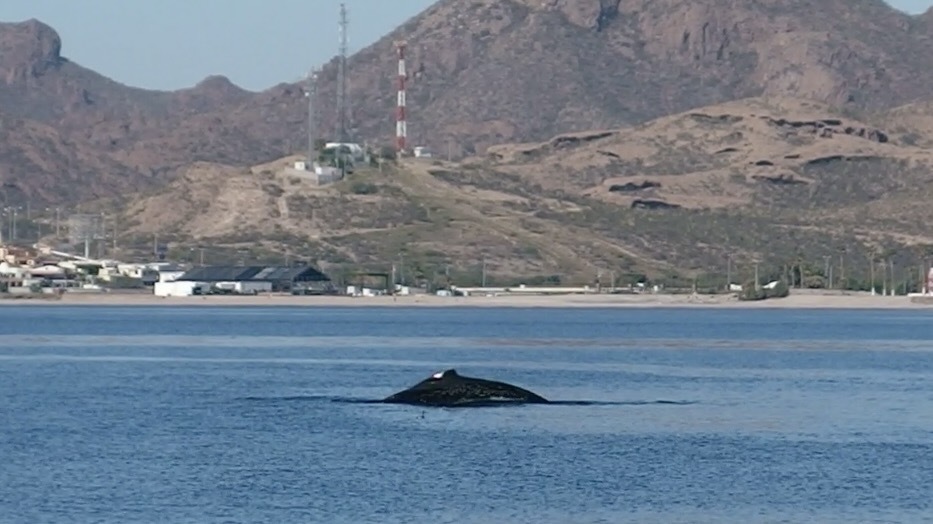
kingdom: Animalia
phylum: Chordata
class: Mammalia
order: Cetacea
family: Balaenopteridae
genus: Megaptera
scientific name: Megaptera novaeangliae
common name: Humpback whale
